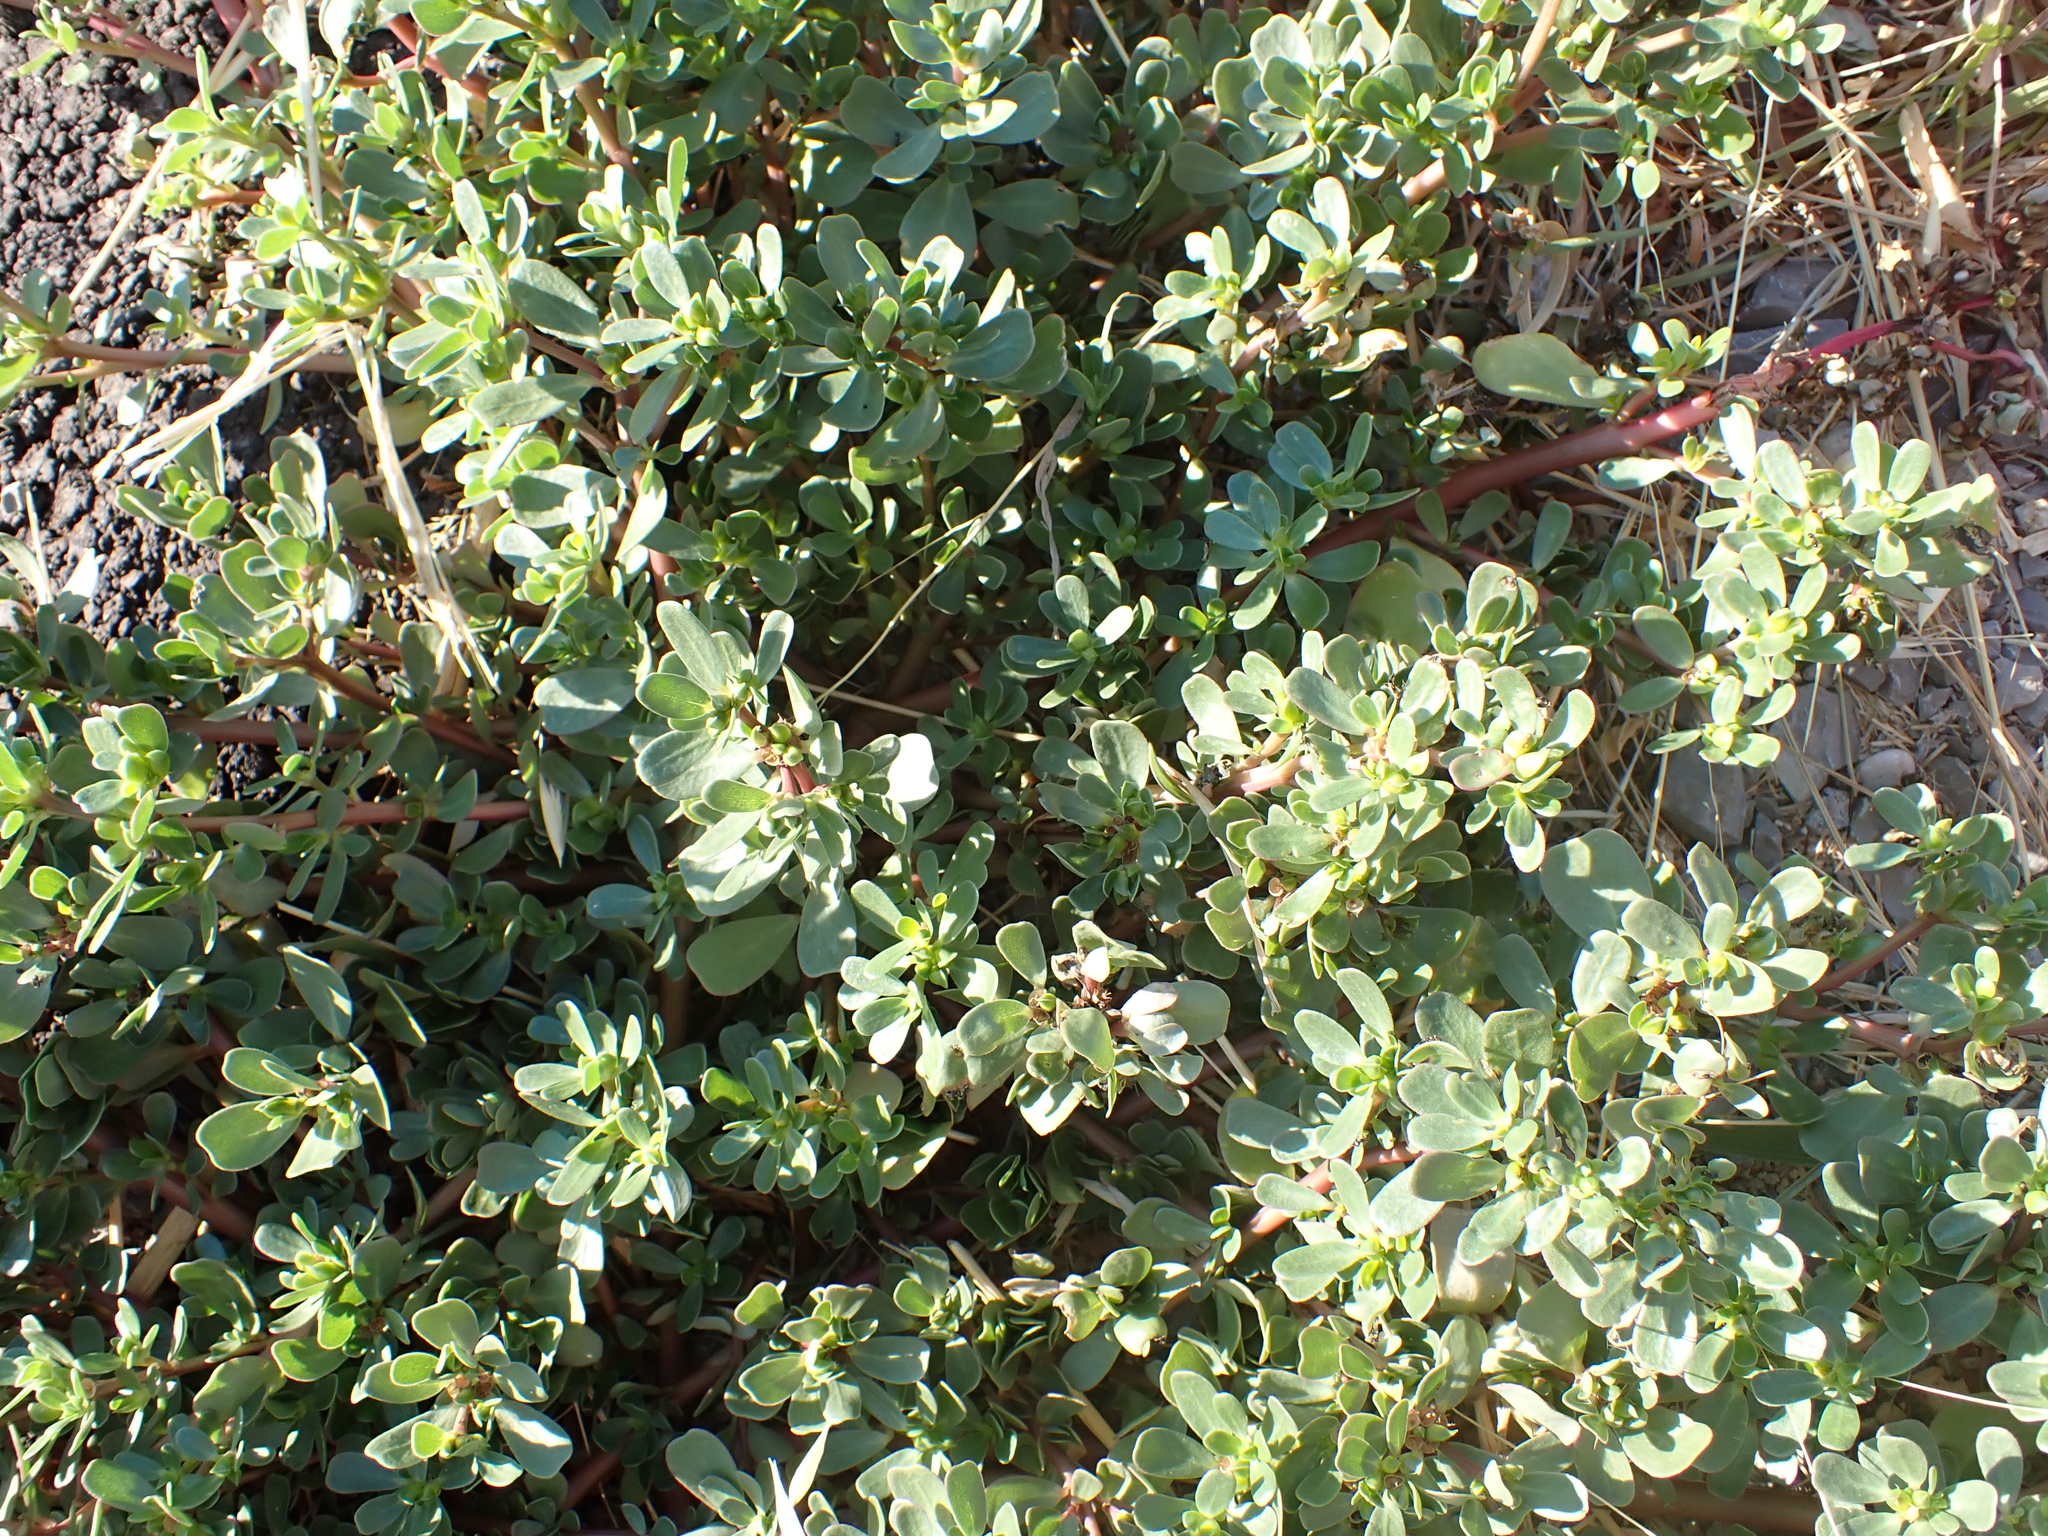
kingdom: Plantae
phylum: Tracheophyta
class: Magnoliopsida
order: Caryophyllales
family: Portulacaceae
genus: Portulaca
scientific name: Portulaca oleracea
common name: Common purslane
